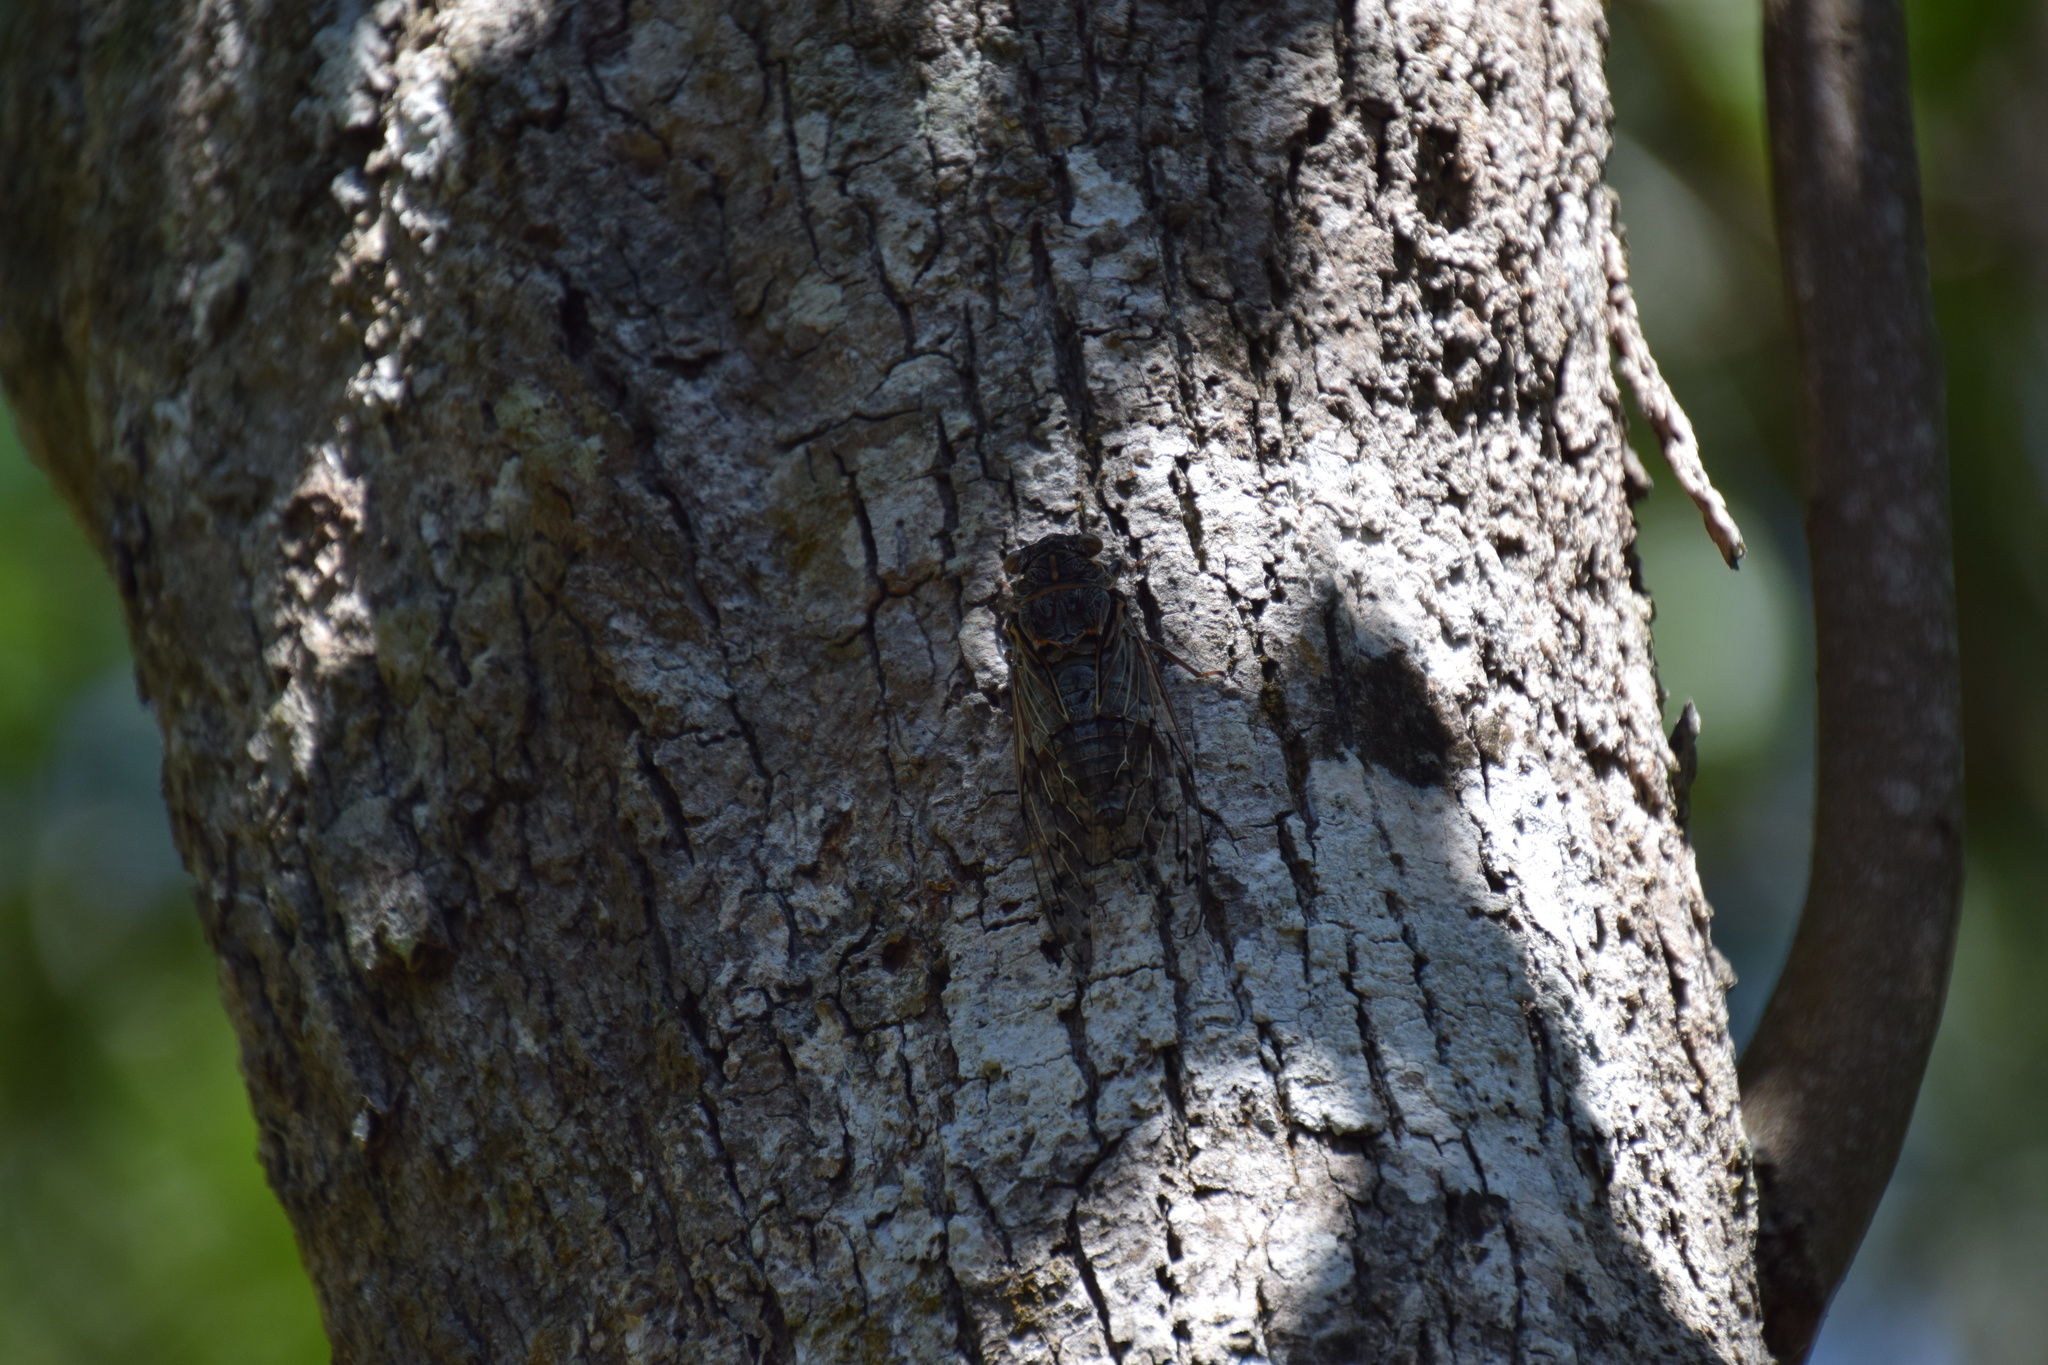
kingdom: Animalia
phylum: Arthropoda
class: Insecta
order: Hemiptera
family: Cicadidae
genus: Henicopsaltria
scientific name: Henicopsaltria eydouxii
